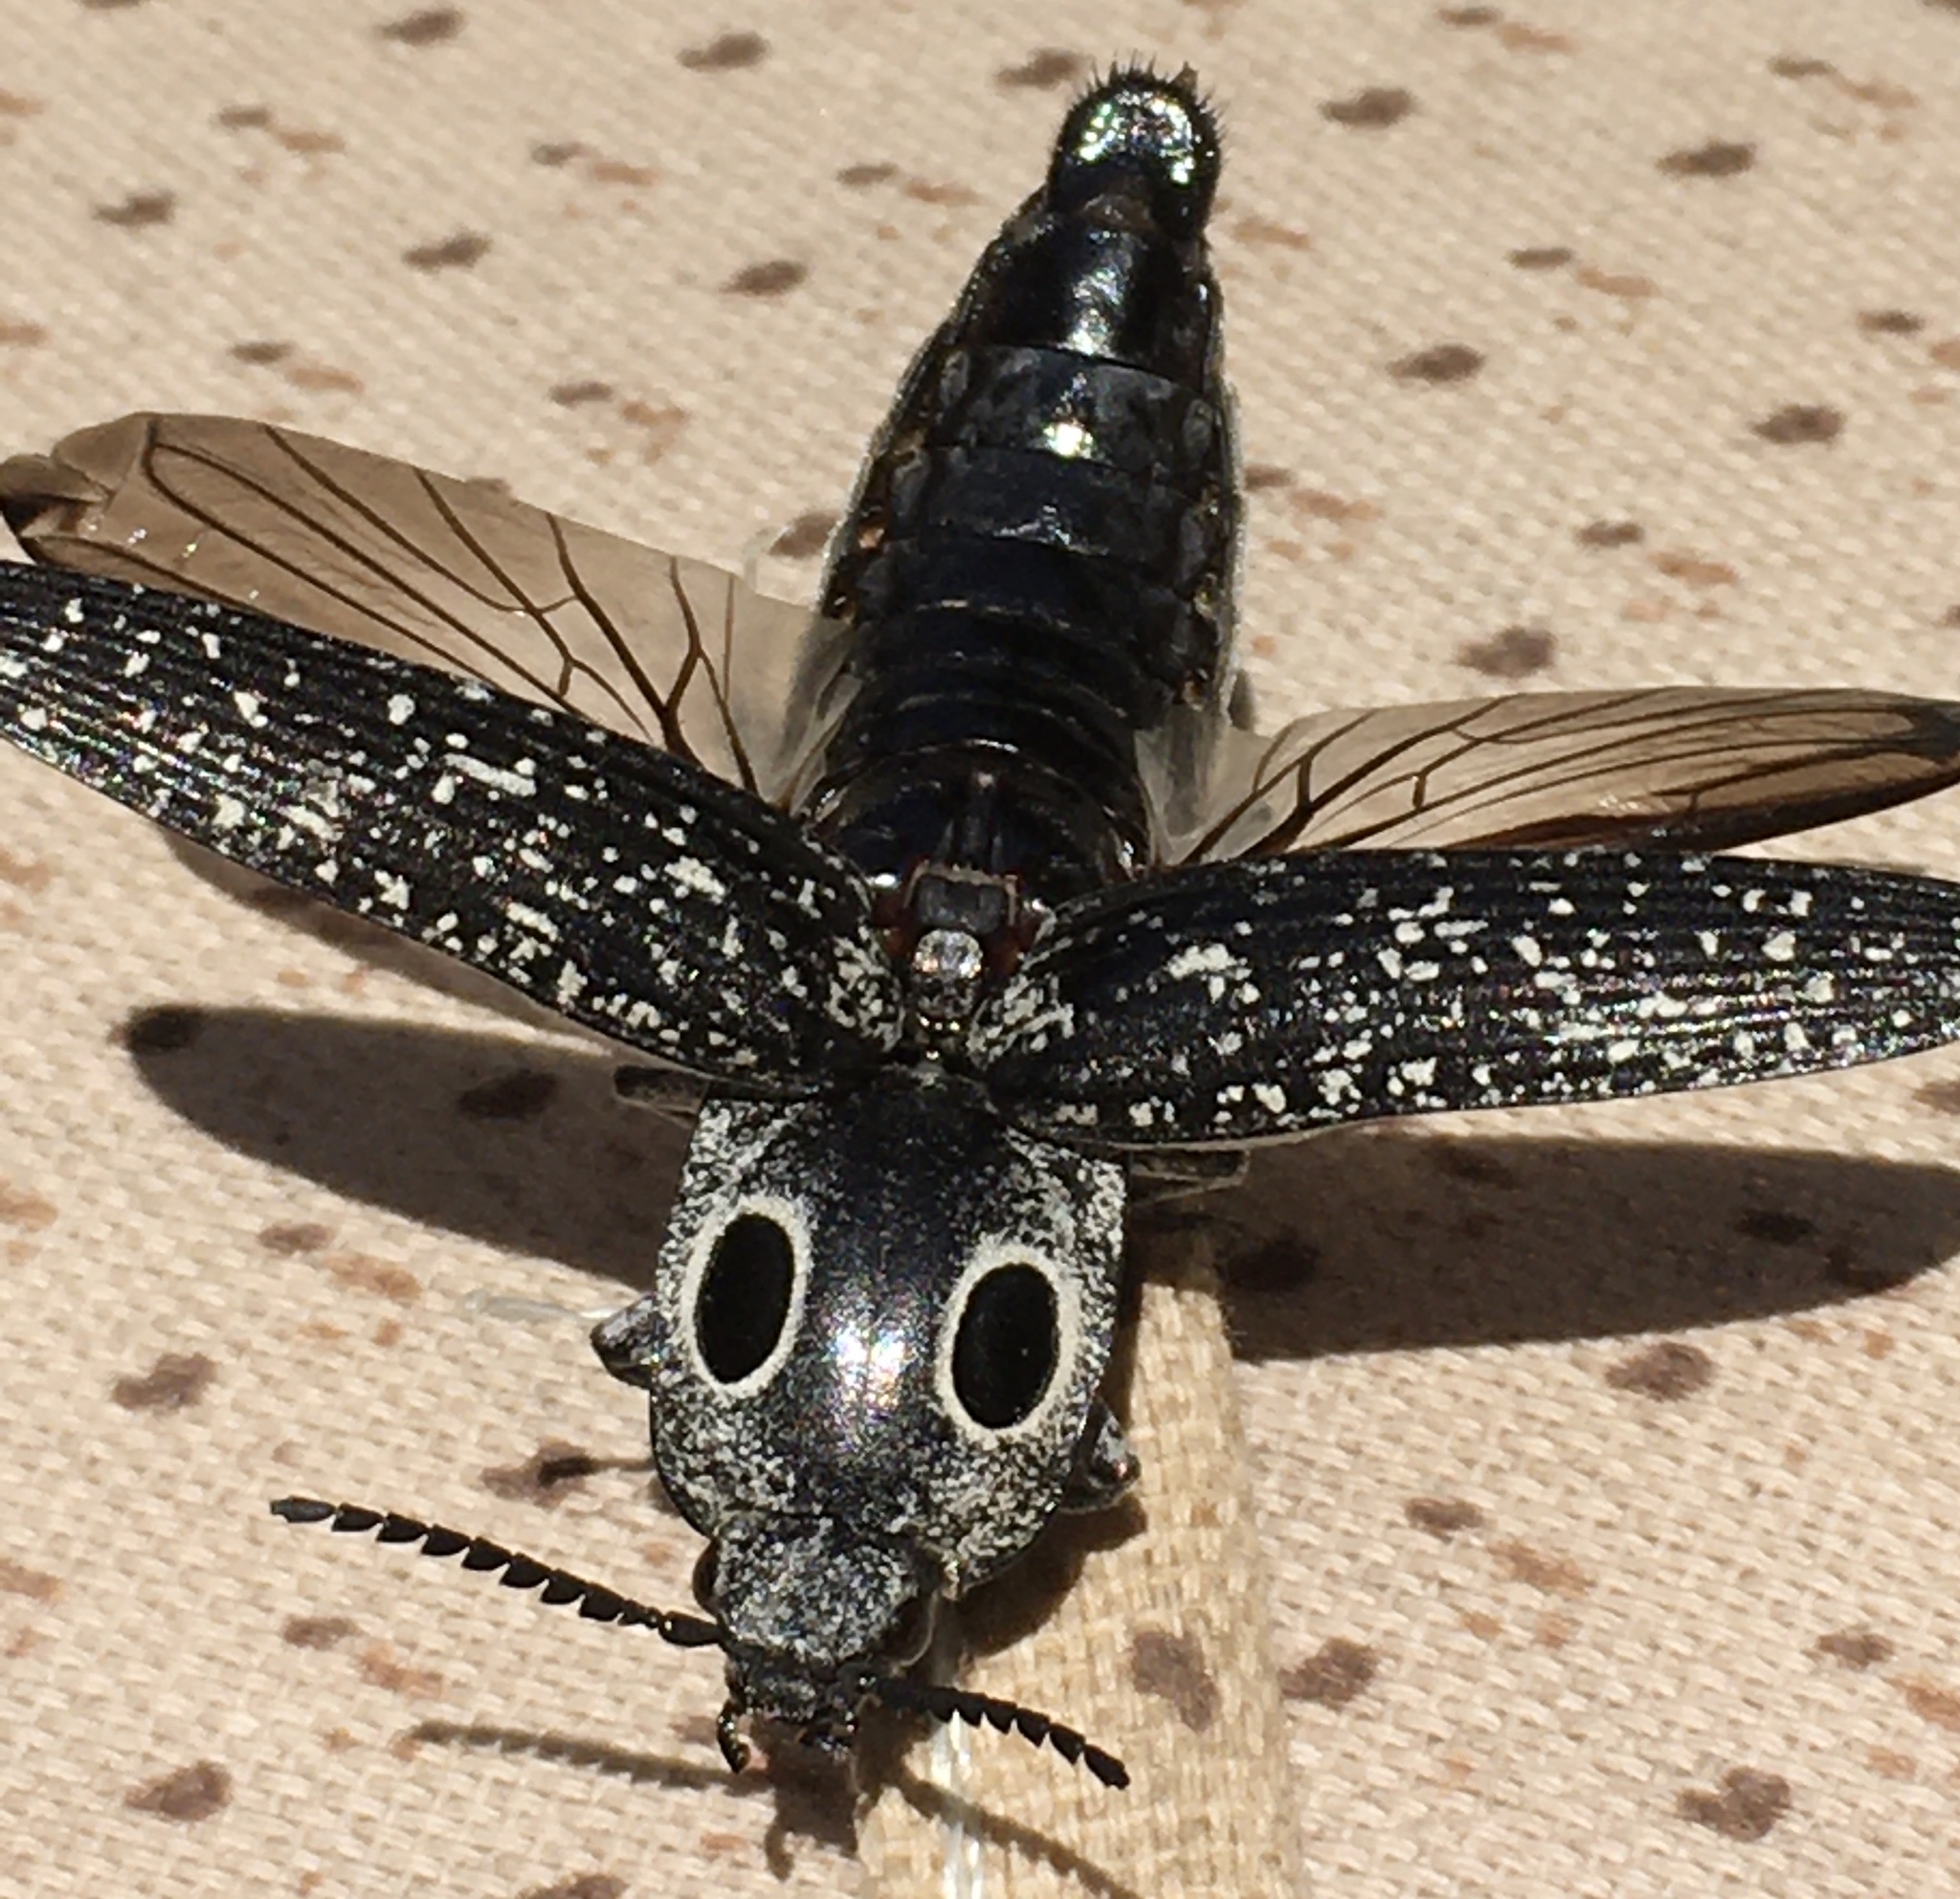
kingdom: Animalia
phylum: Arthropoda
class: Insecta
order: Coleoptera
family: Elateridae
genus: Alaus
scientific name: Alaus oculatus
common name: Eastern eyed click beetle
